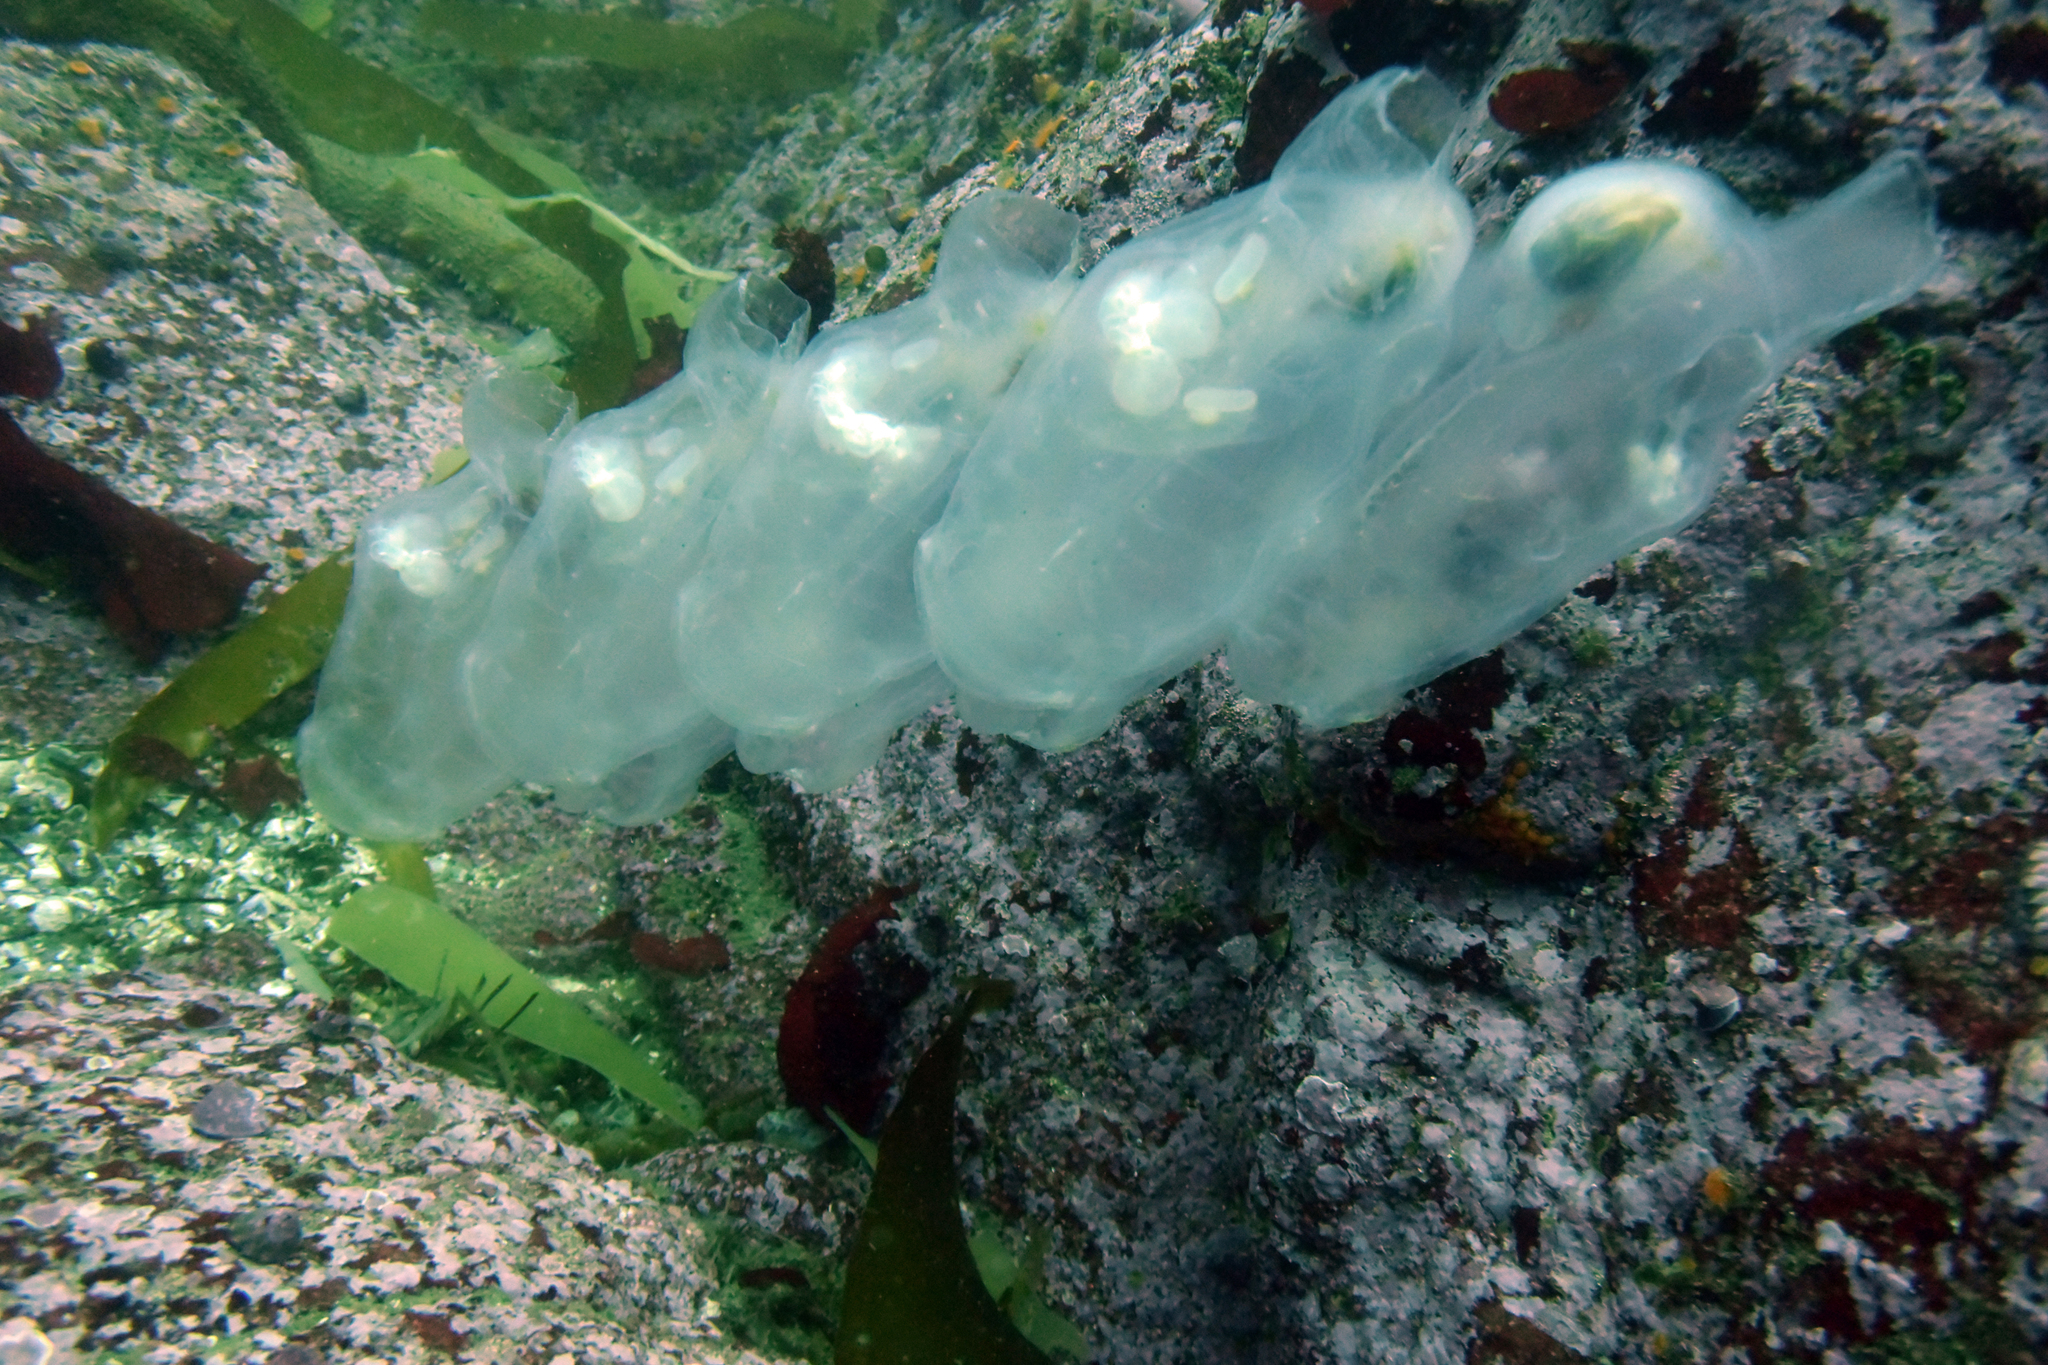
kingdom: Animalia
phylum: Chordata
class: Thaliacea
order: Salpida
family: Salpidae
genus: Thetys
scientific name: Thetys vagina
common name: Vagina salp
